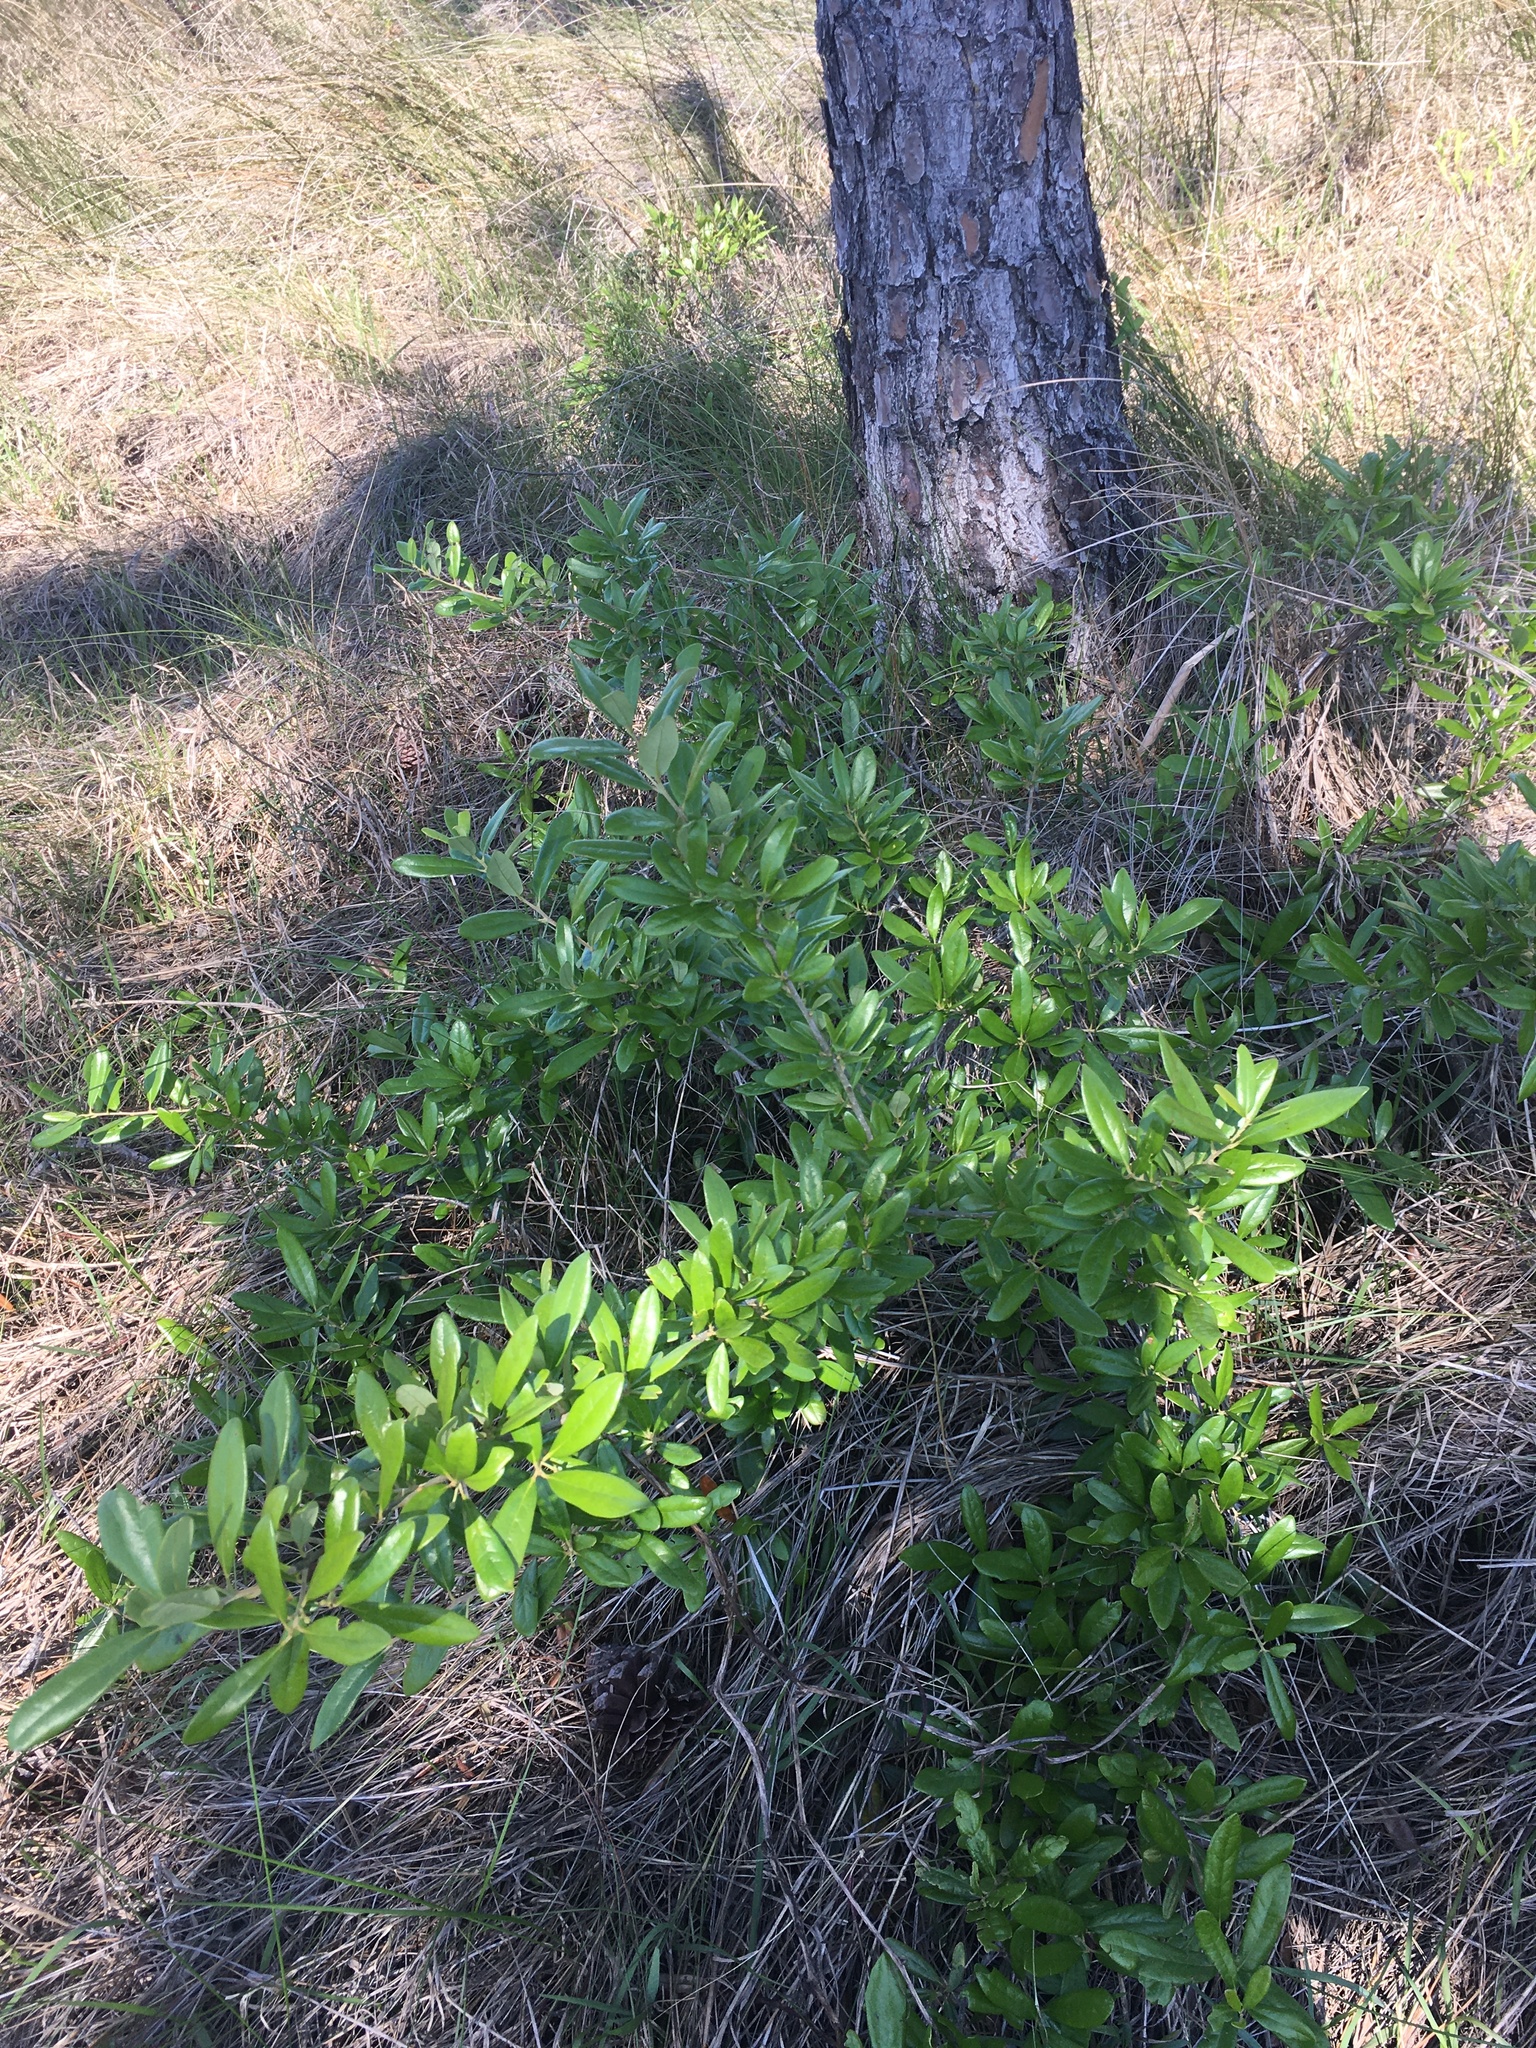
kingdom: Plantae
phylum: Tracheophyta
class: Magnoliopsida
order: Fagales
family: Fagaceae
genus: Quercus
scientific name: Quercus virginiana
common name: Southern live oak
